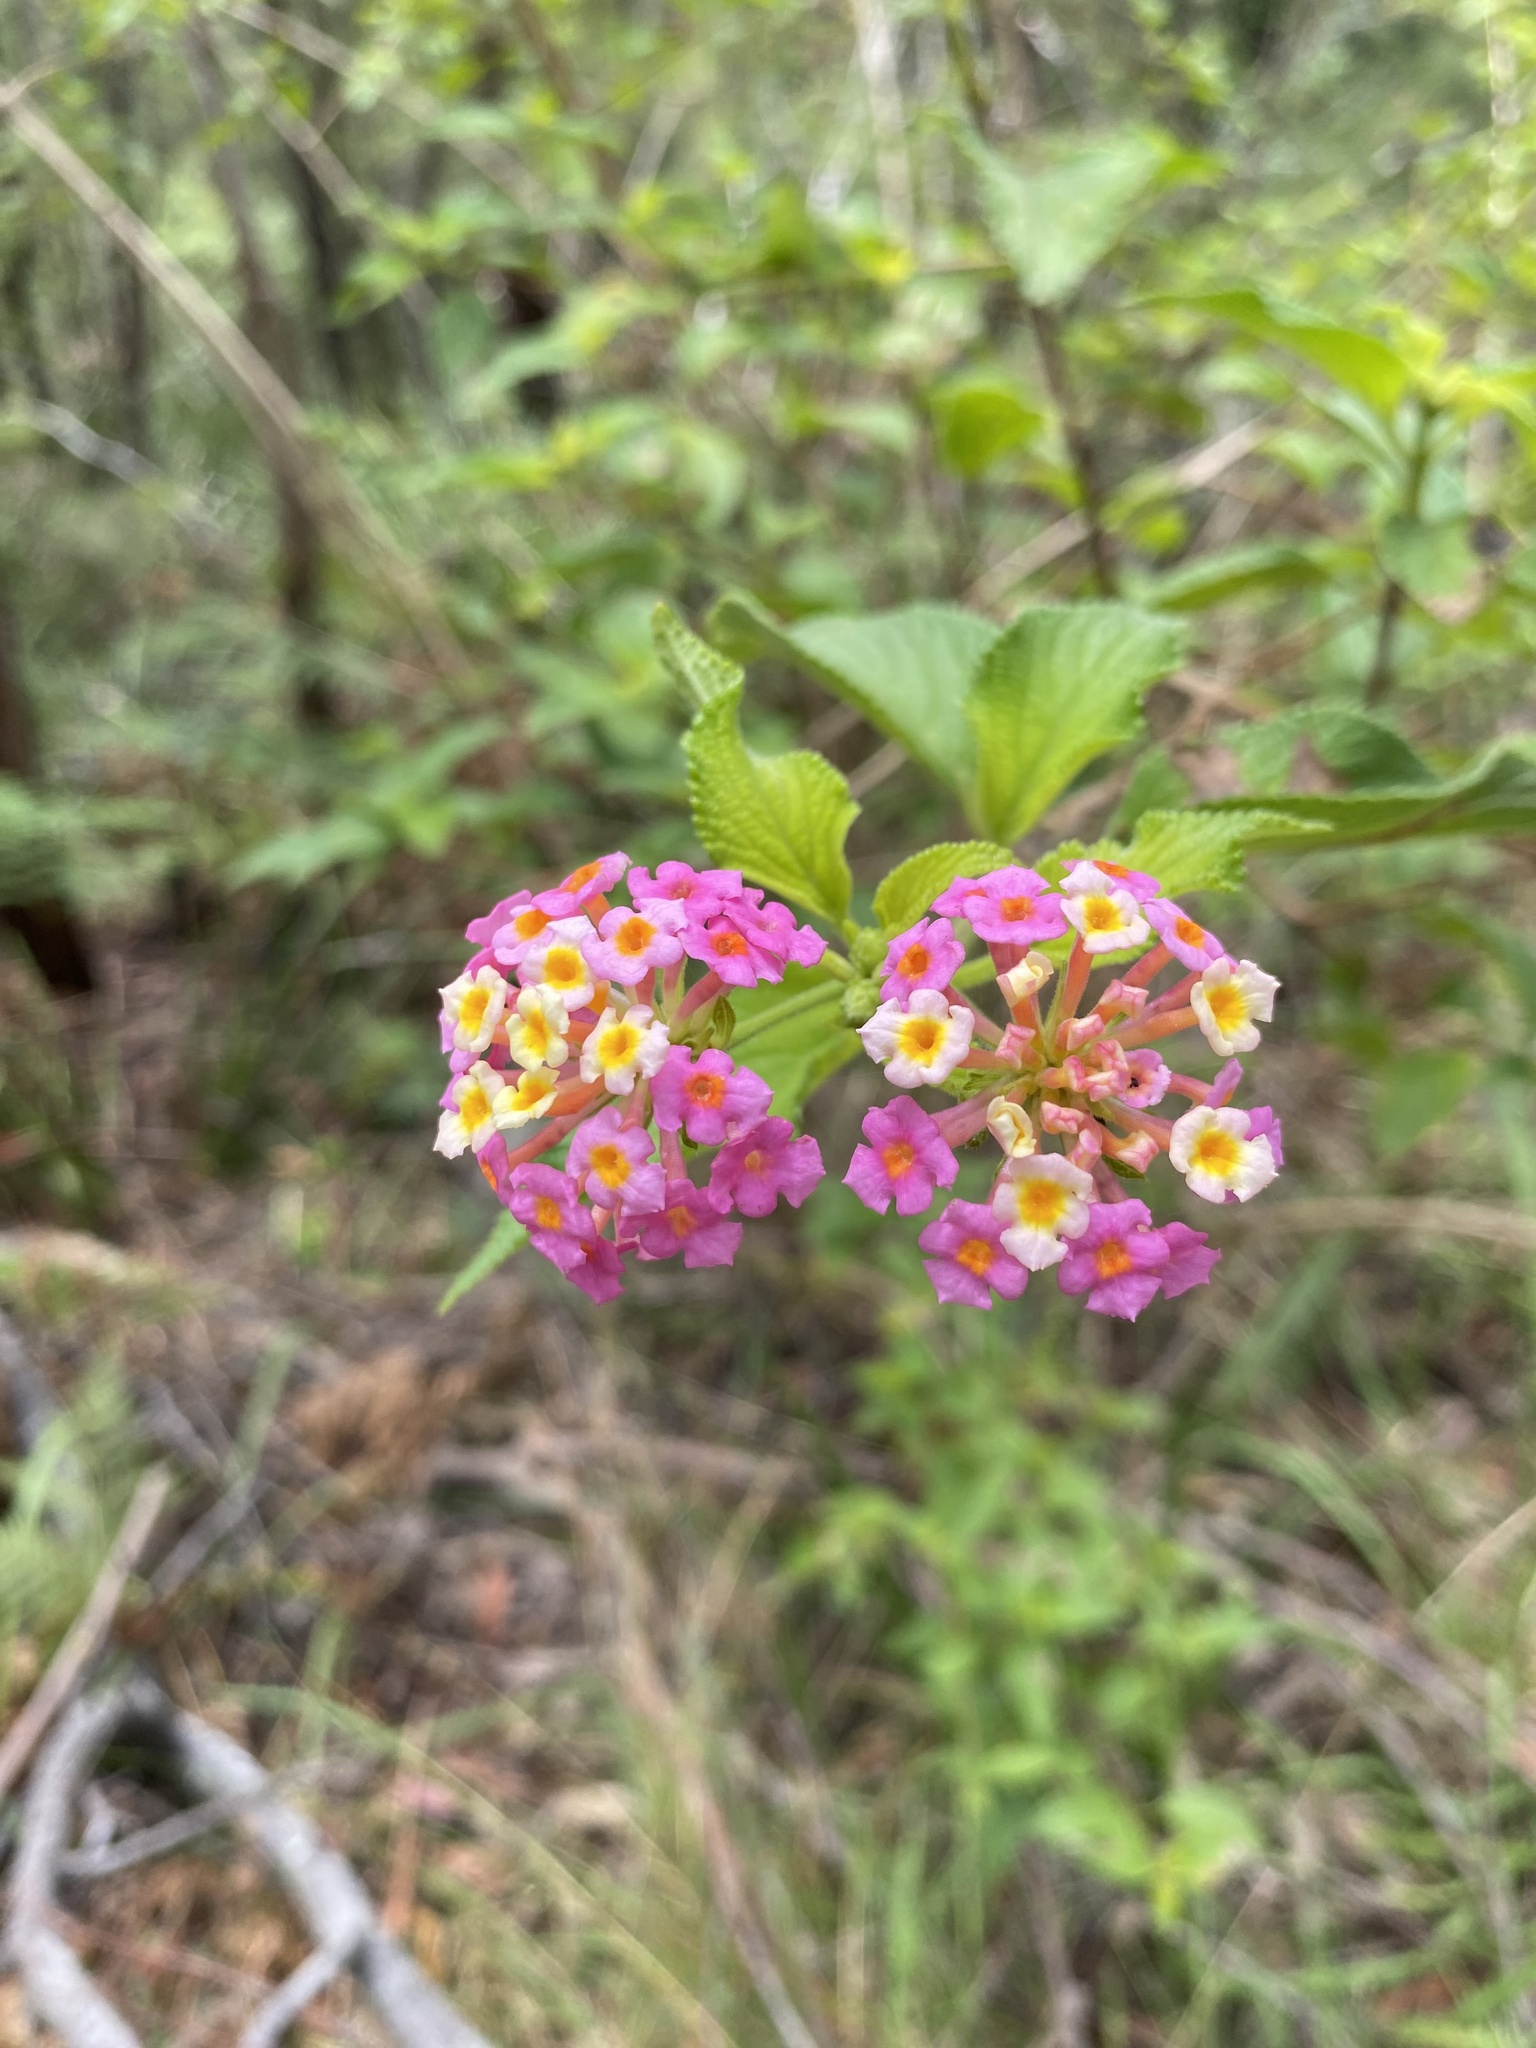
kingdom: Plantae
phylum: Tracheophyta
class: Magnoliopsida
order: Lamiales
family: Verbenaceae
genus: Lantana
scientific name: Lantana camara
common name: Lantana
